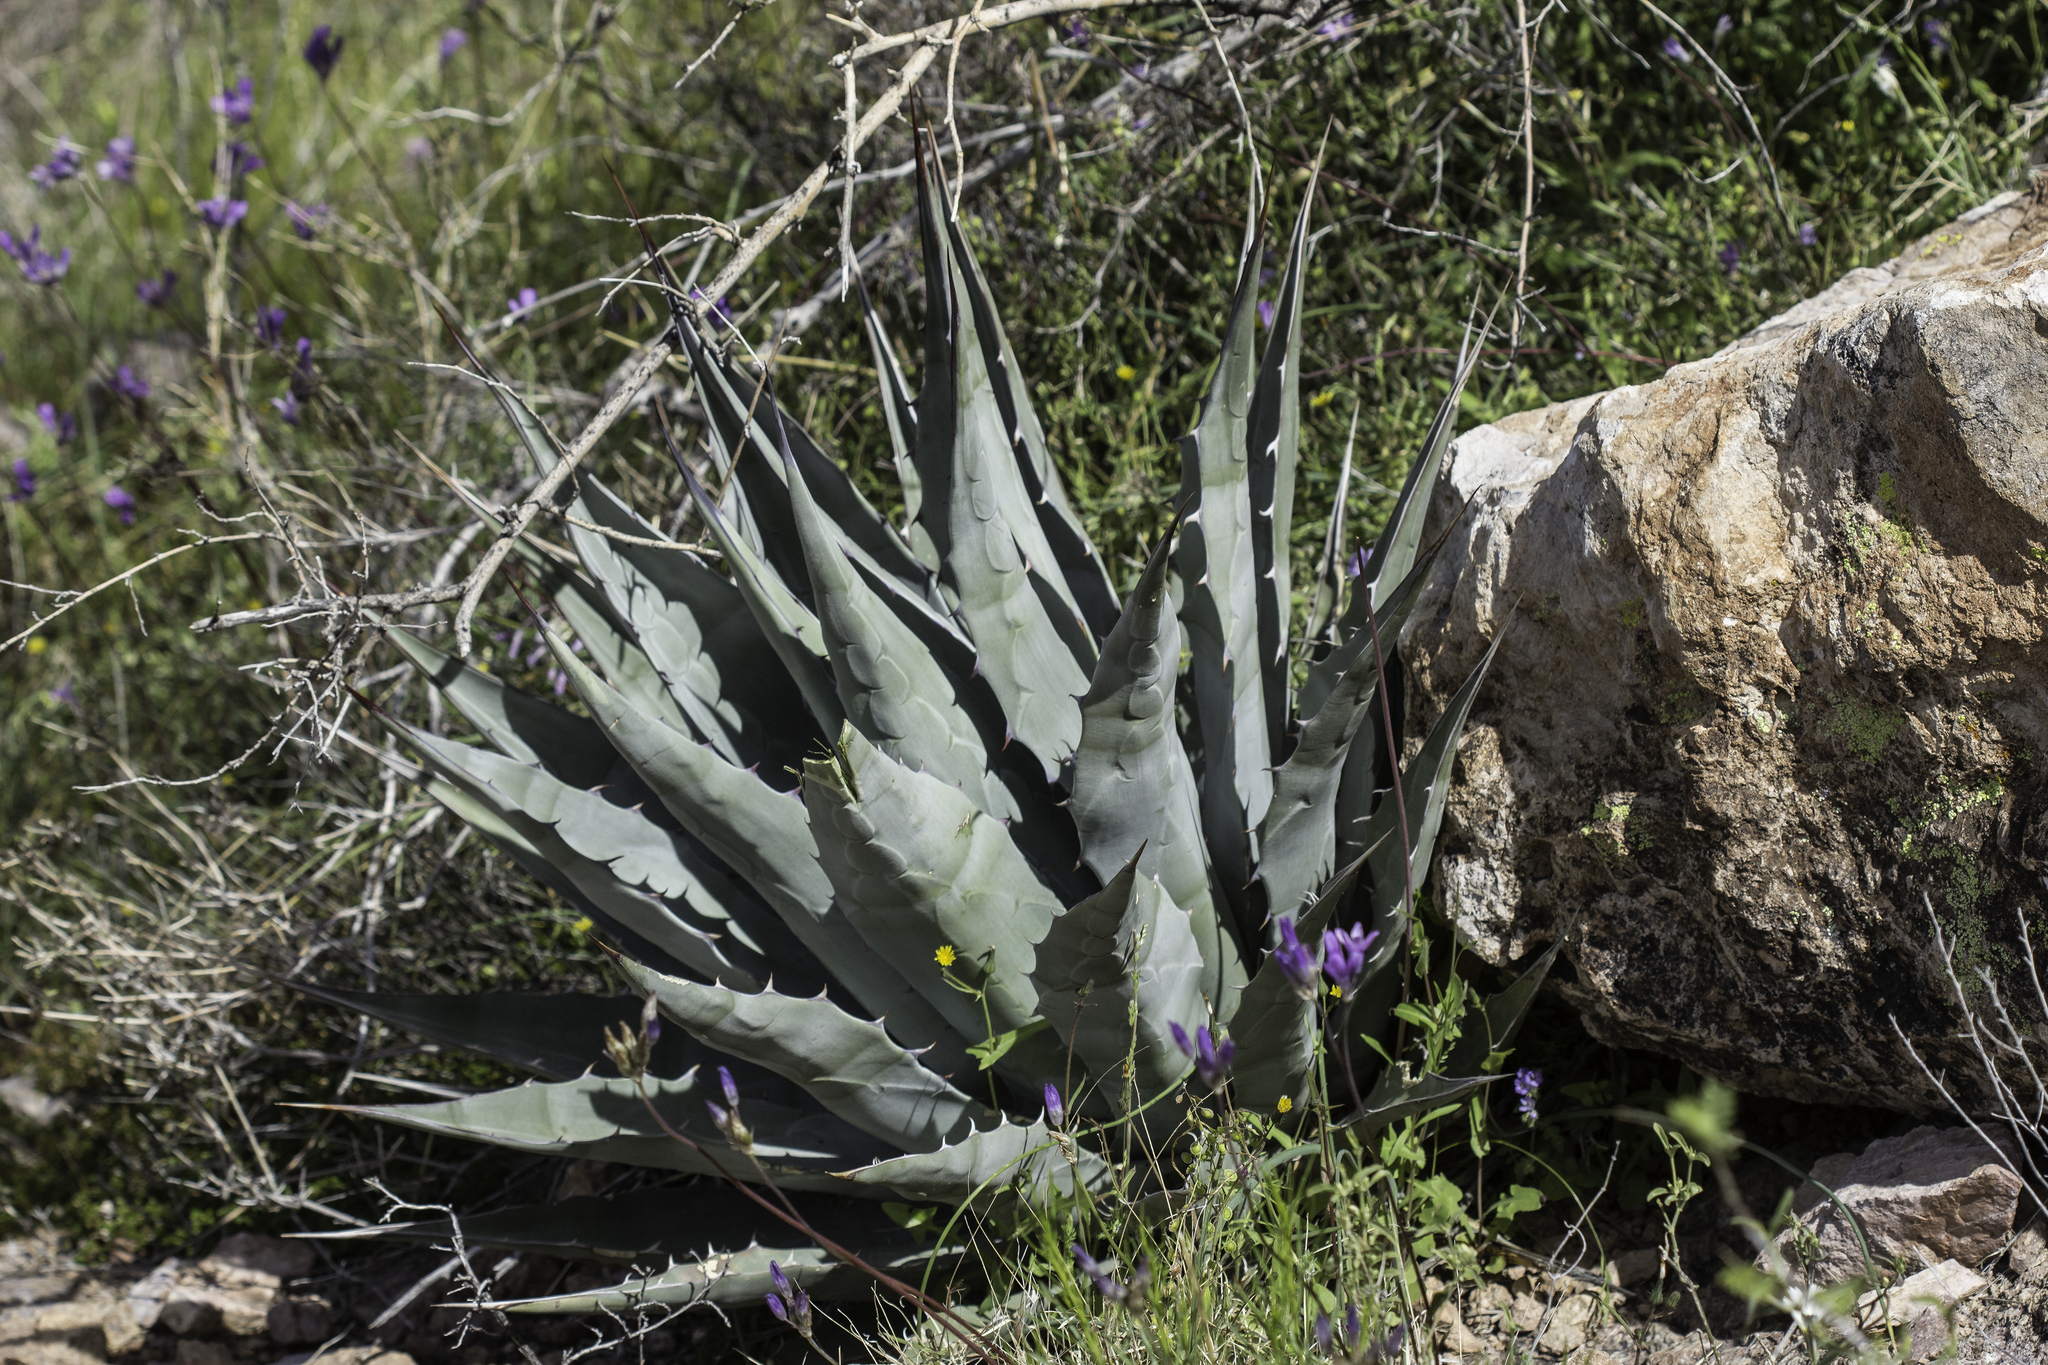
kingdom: Plantae
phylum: Tracheophyta
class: Liliopsida
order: Asparagales
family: Asparagaceae
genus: Agave
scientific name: Agave simplex
